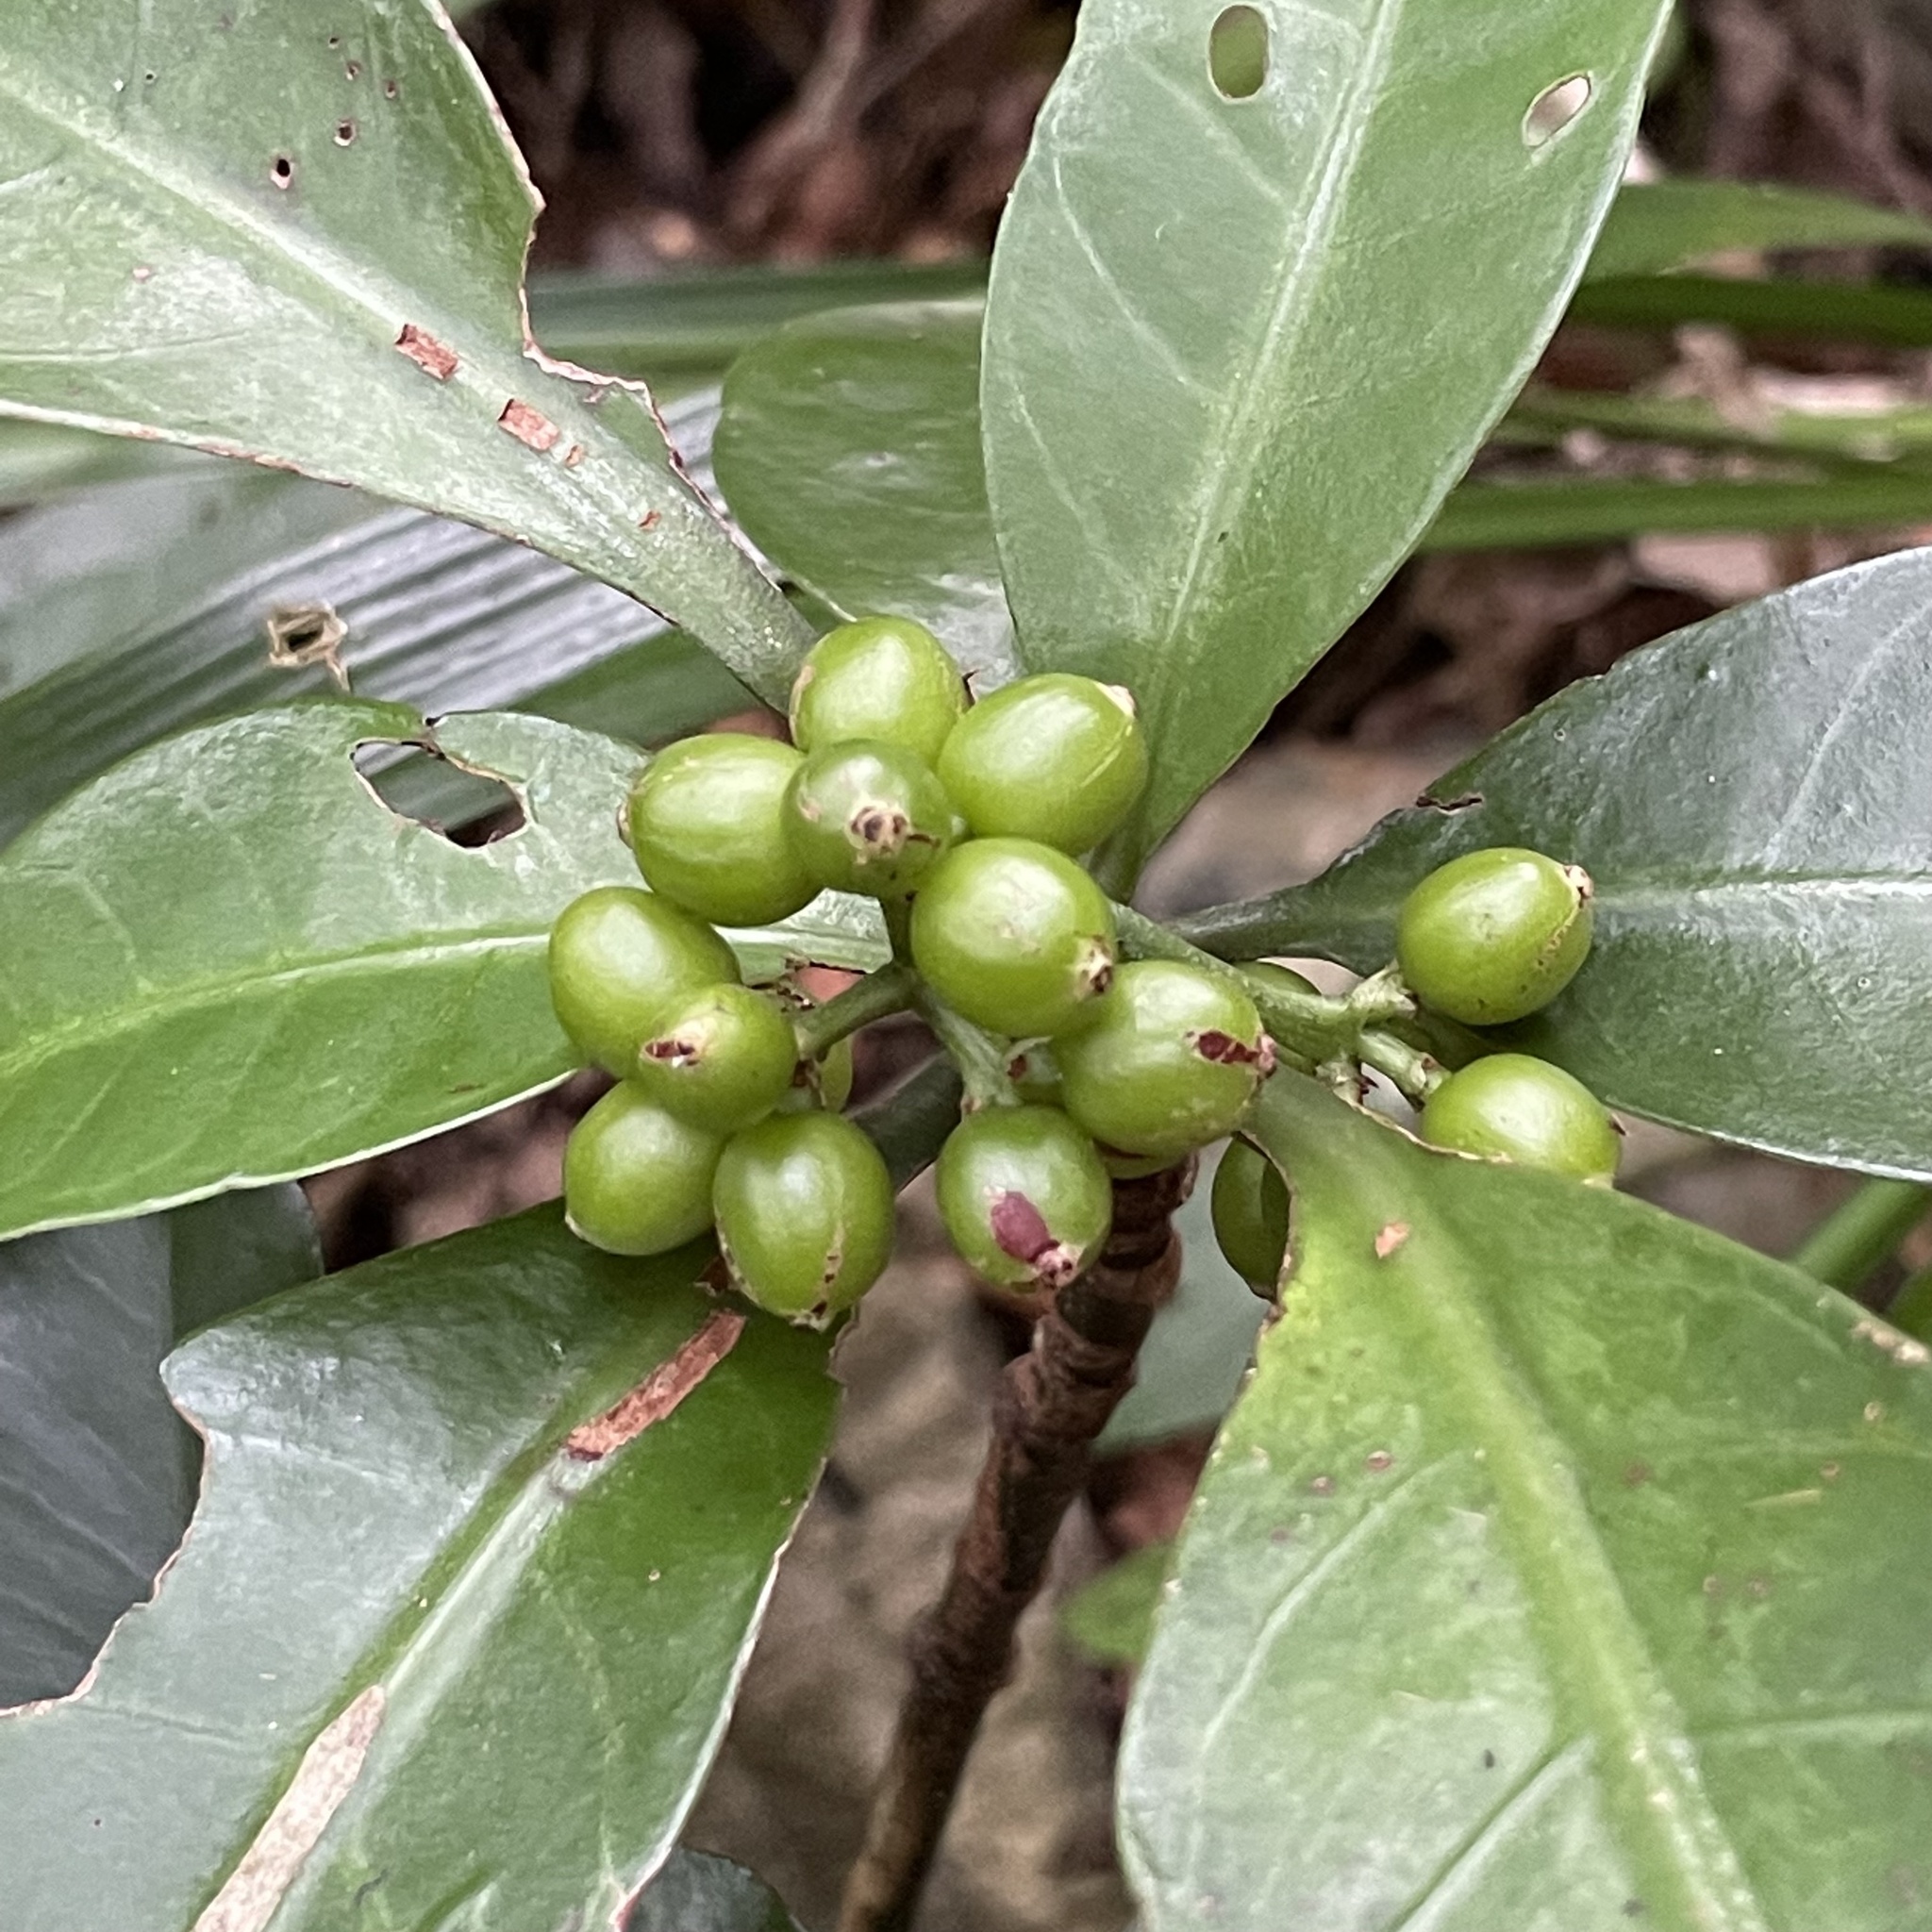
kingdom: Plantae
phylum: Tracheophyta
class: Magnoliopsida
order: Gentianales
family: Rubiaceae
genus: Psychotria
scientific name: Psychotria manillensis
